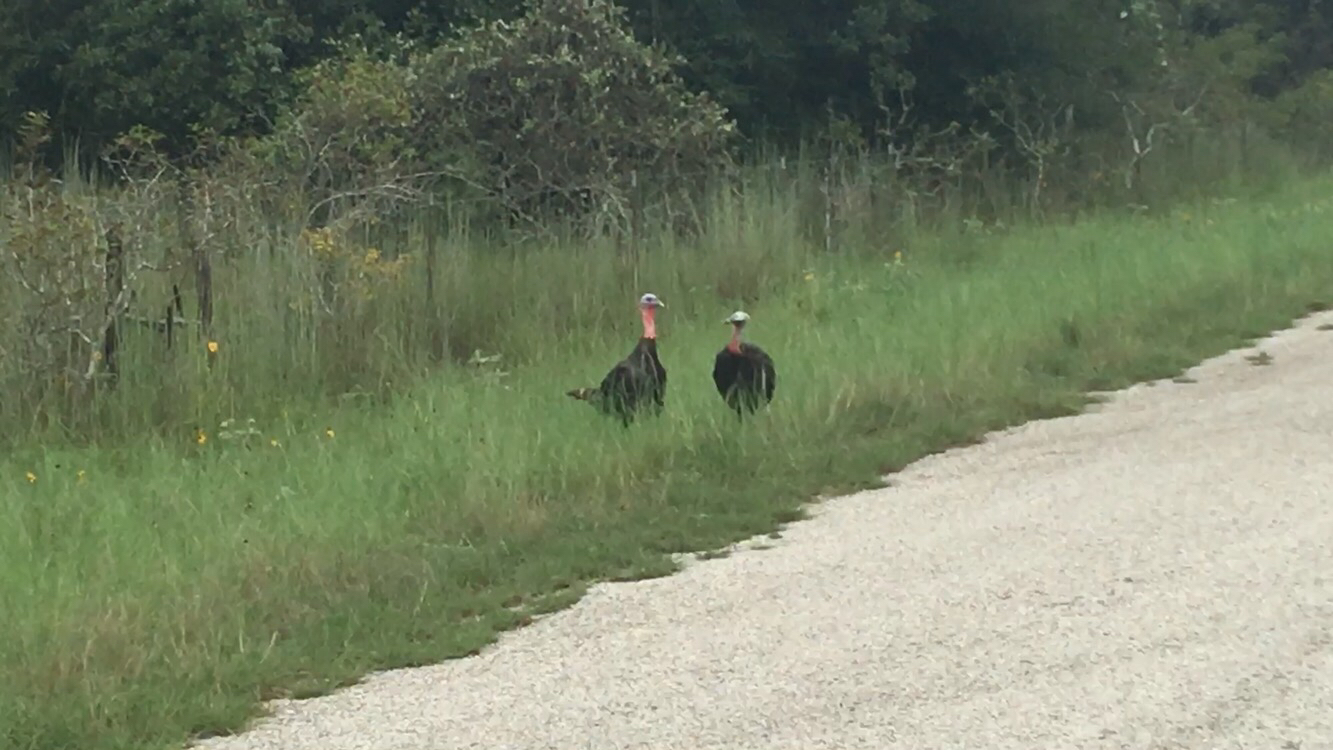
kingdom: Animalia
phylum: Chordata
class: Aves
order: Galliformes
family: Phasianidae
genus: Meleagris
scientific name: Meleagris gallopavo
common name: Wild turkey
